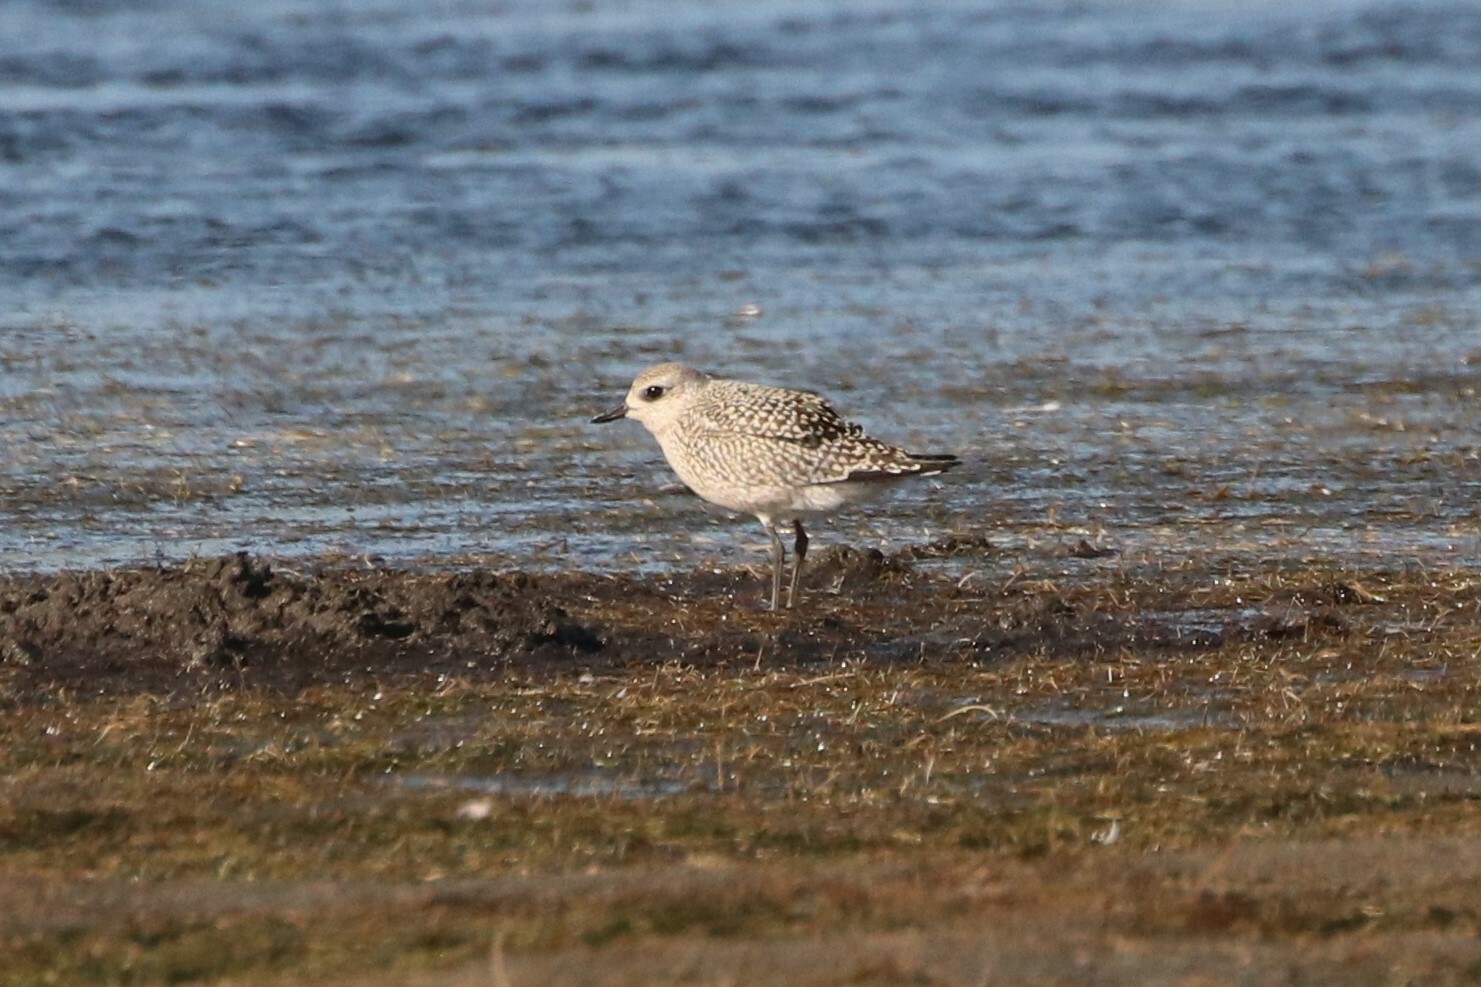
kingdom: Animalia
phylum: Chordata
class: Aves
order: Charadriiformes
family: Charadriidae
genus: Pluvialis
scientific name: Pluvialis squatarola
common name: Grey plover
